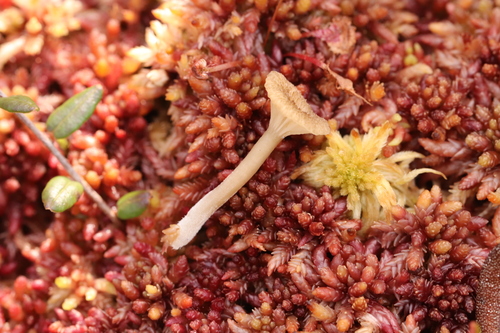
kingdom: Fungi
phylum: Basidiomycota
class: Agaricomycetes
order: Agaricales
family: Hygrophoraceae
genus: Lichenomphalia
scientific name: Lichenomphalia umbellifera
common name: Heath navel
